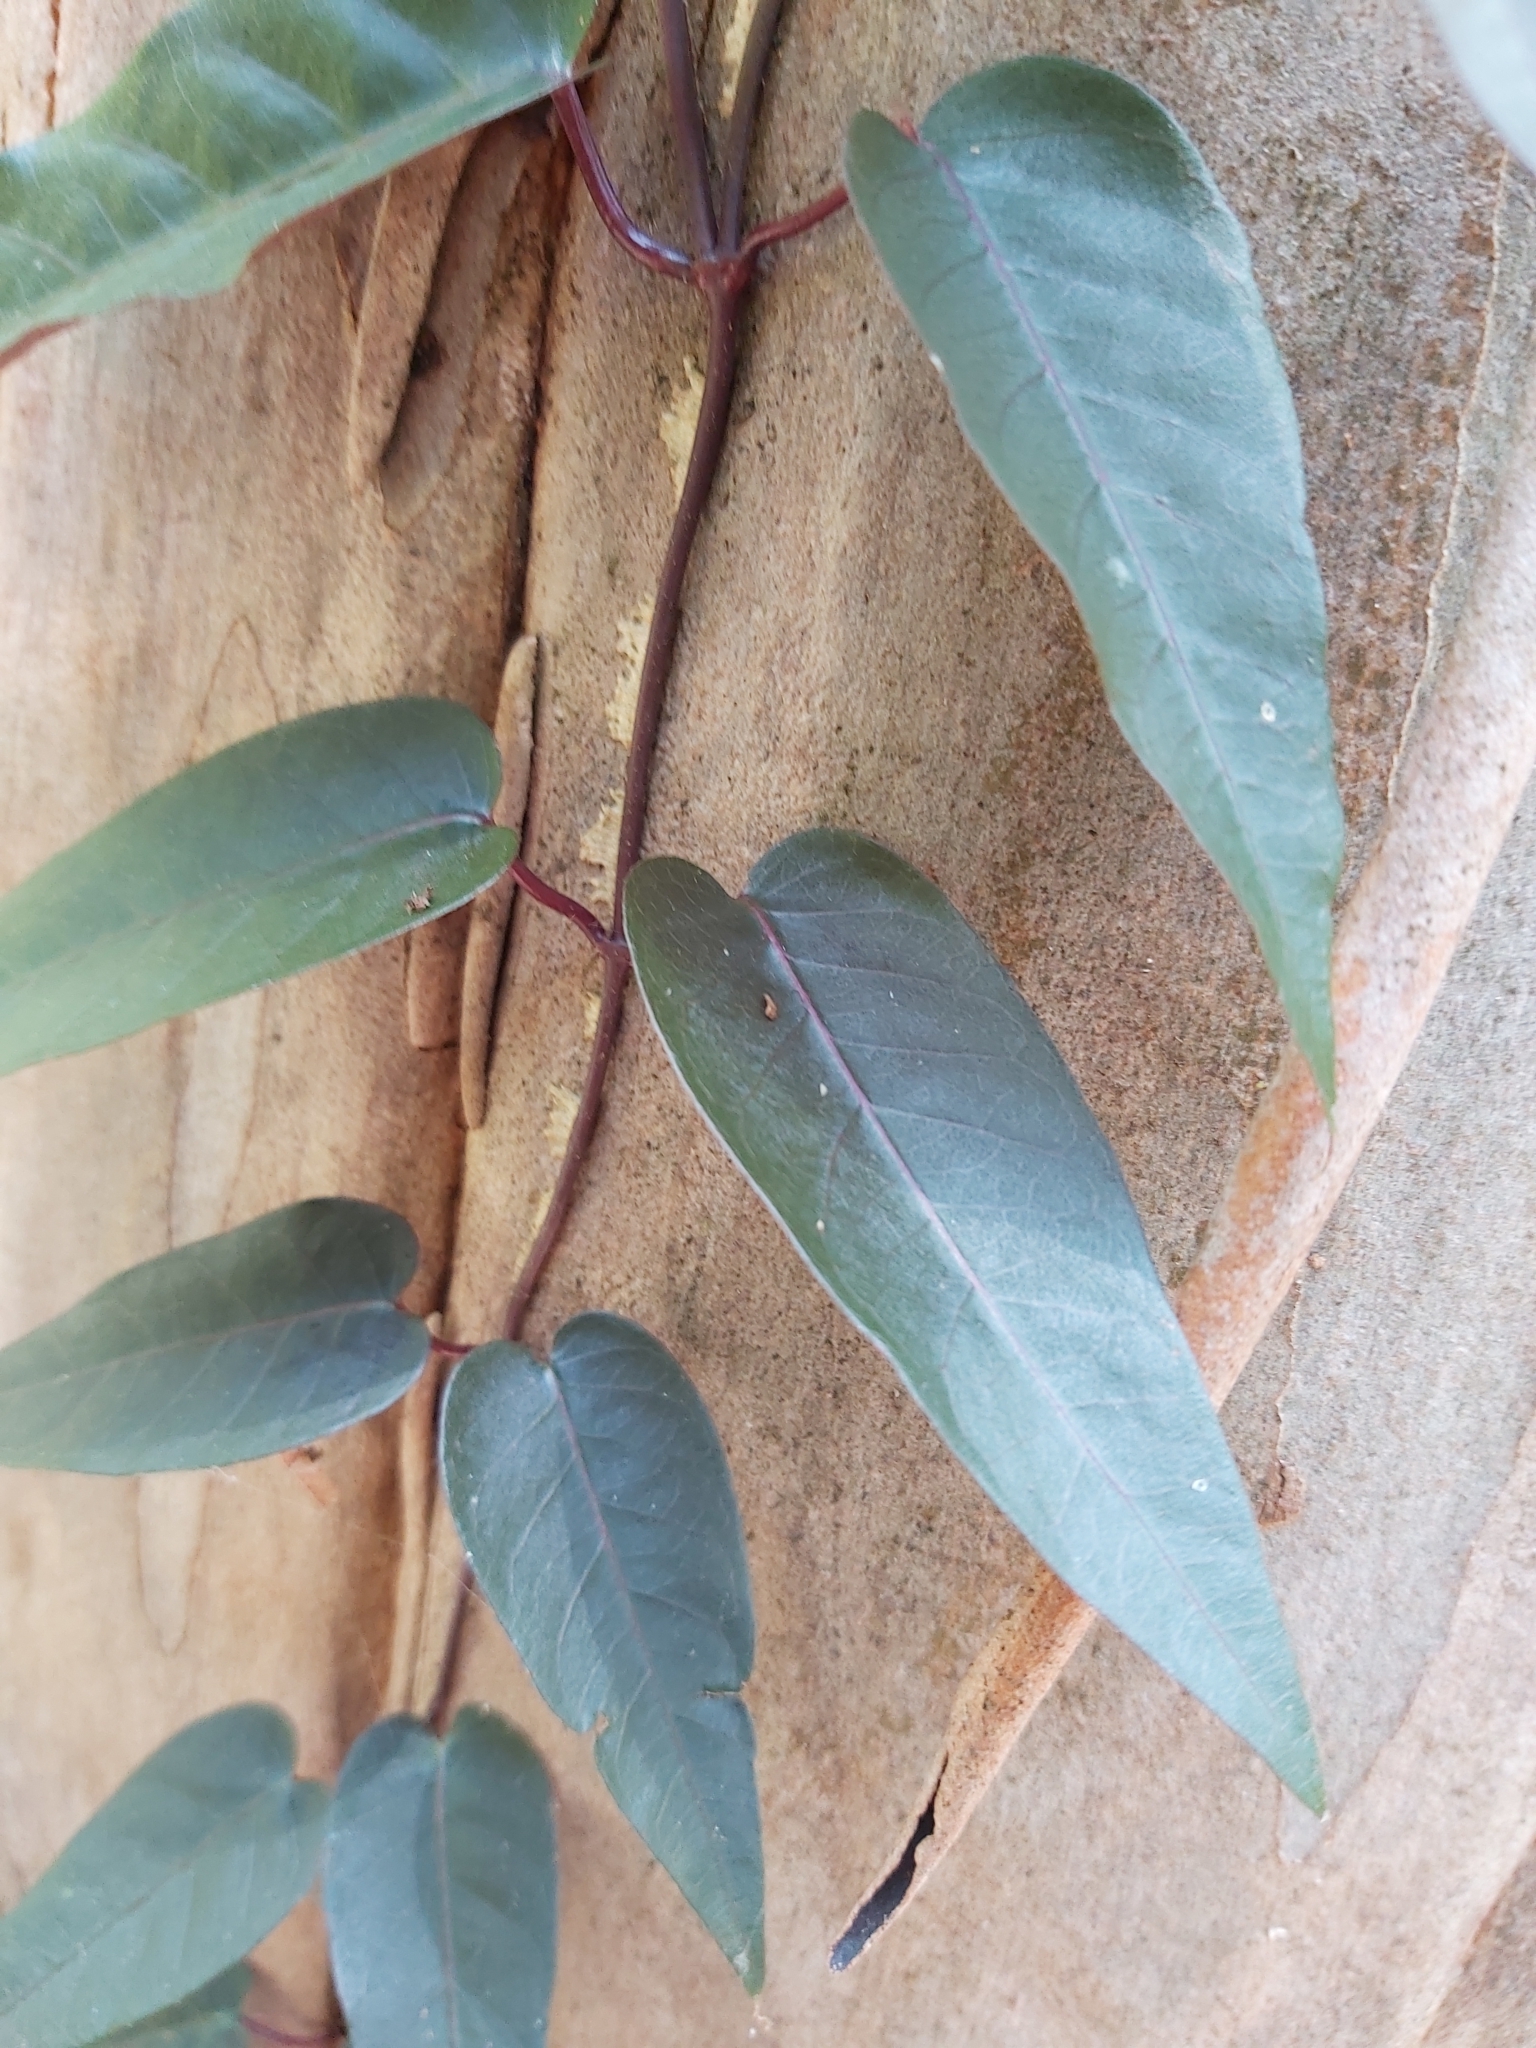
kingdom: Plantae
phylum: Tracheophyta
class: Magnoliopsida
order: Gentianales
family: Apocynaceae
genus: Parsonsia
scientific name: Parsonsia straminea
